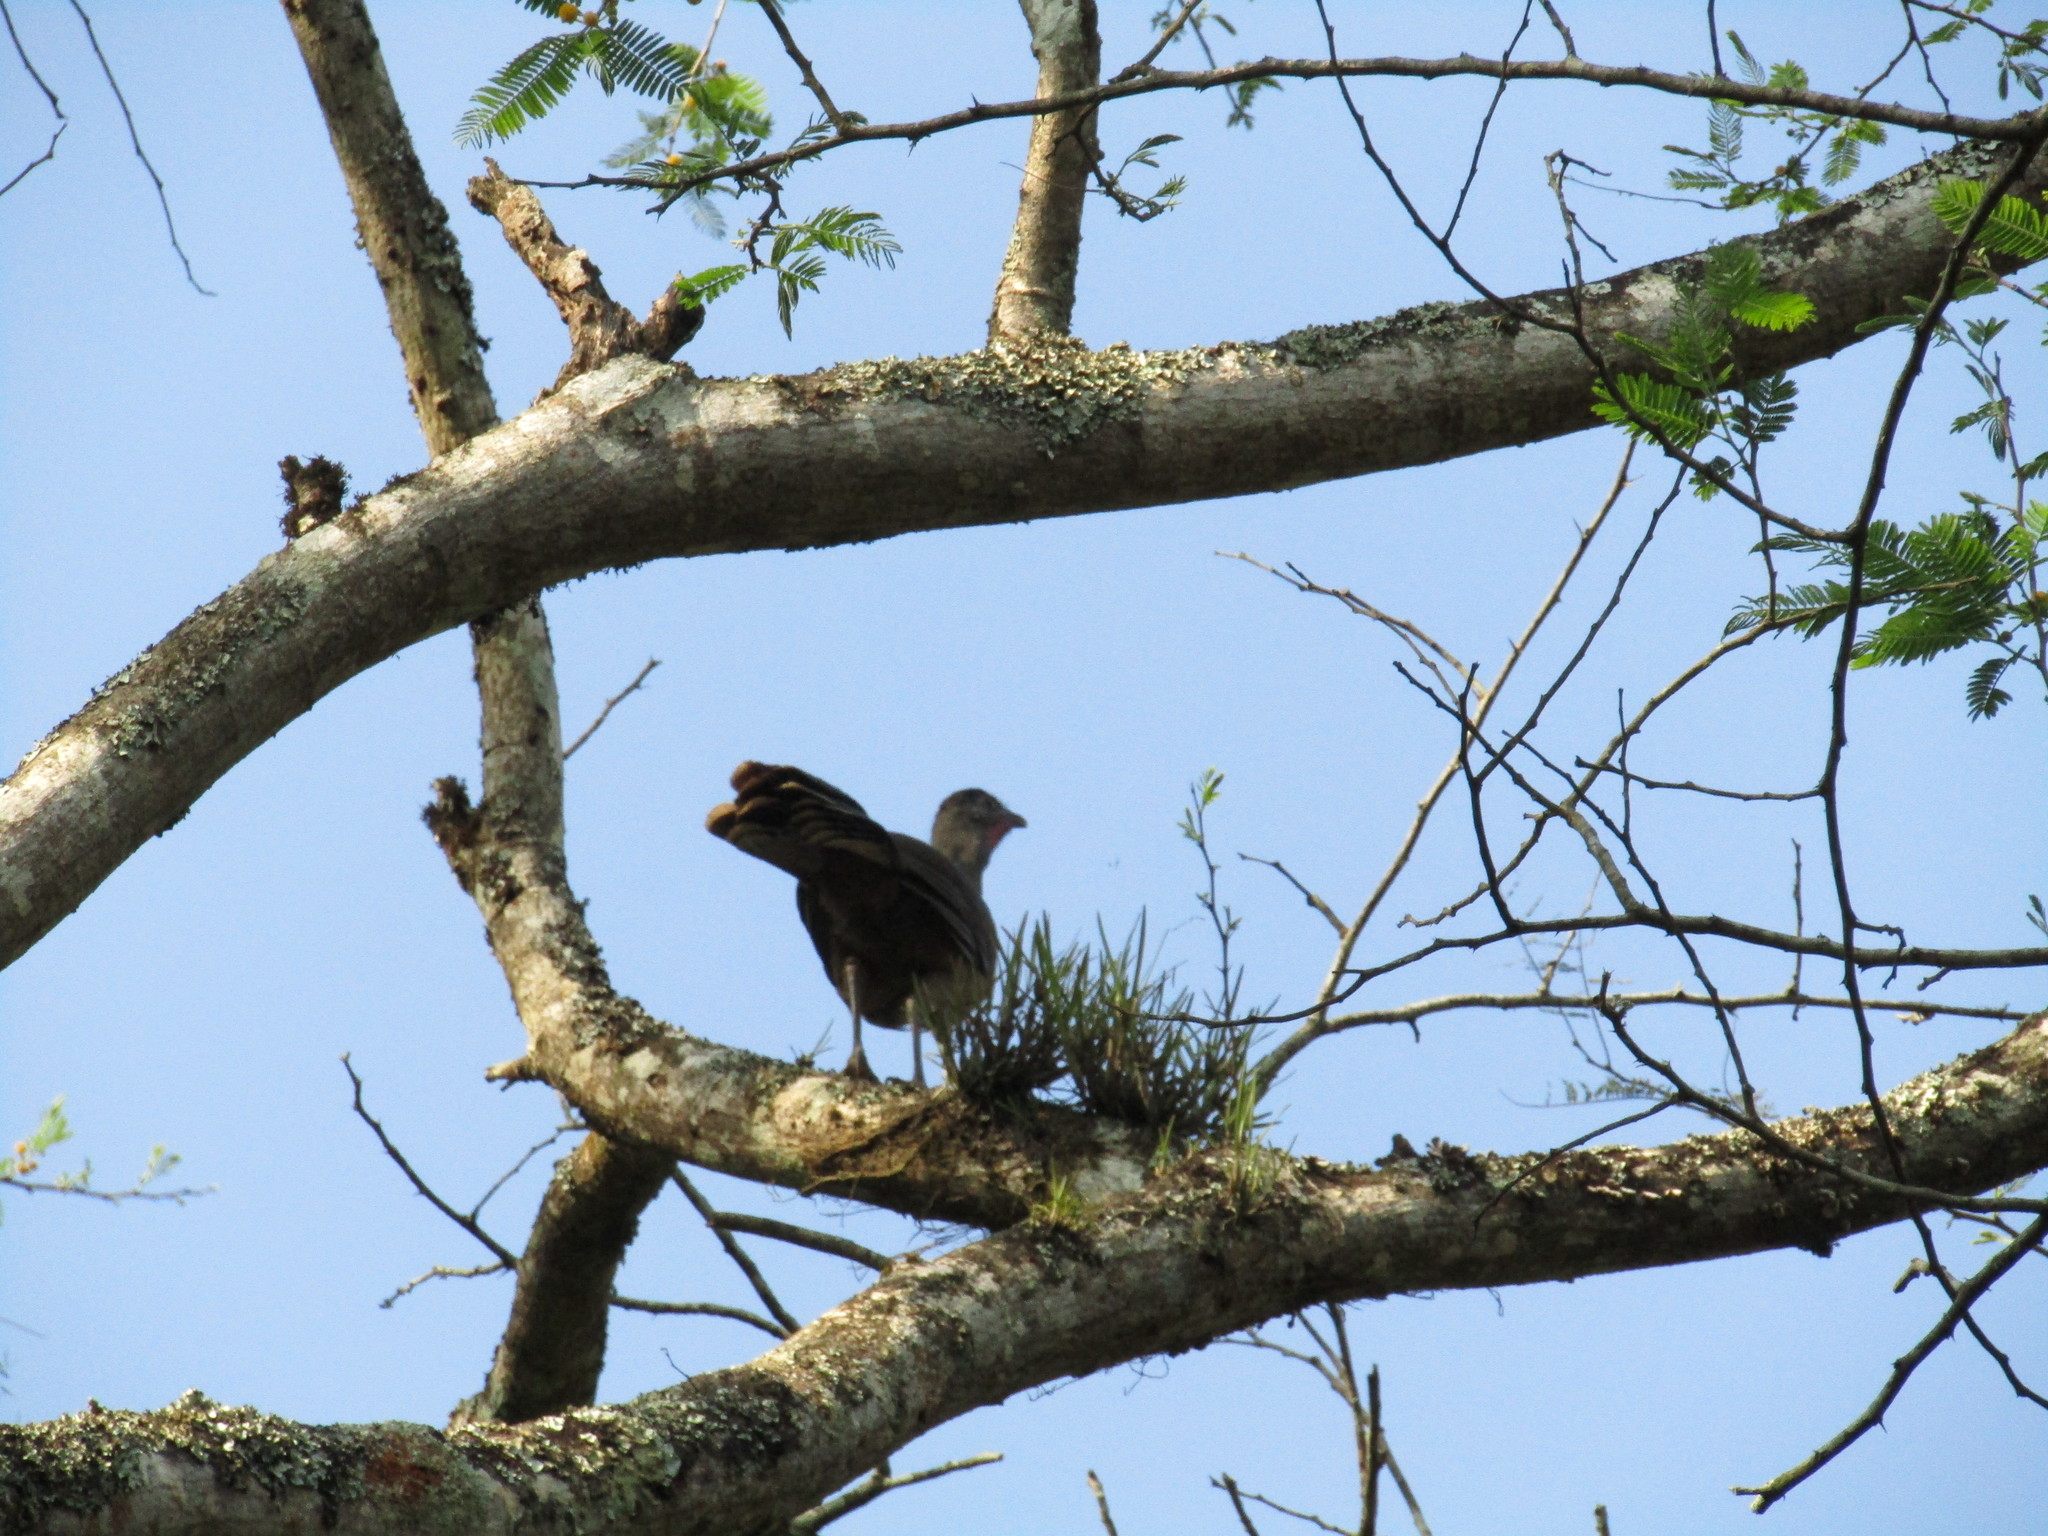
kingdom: Animalia
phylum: Chordata
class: Aves
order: Galliformes
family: Cracidae
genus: Ortalis
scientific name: Ortalis vetula
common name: Plain chachalaca
